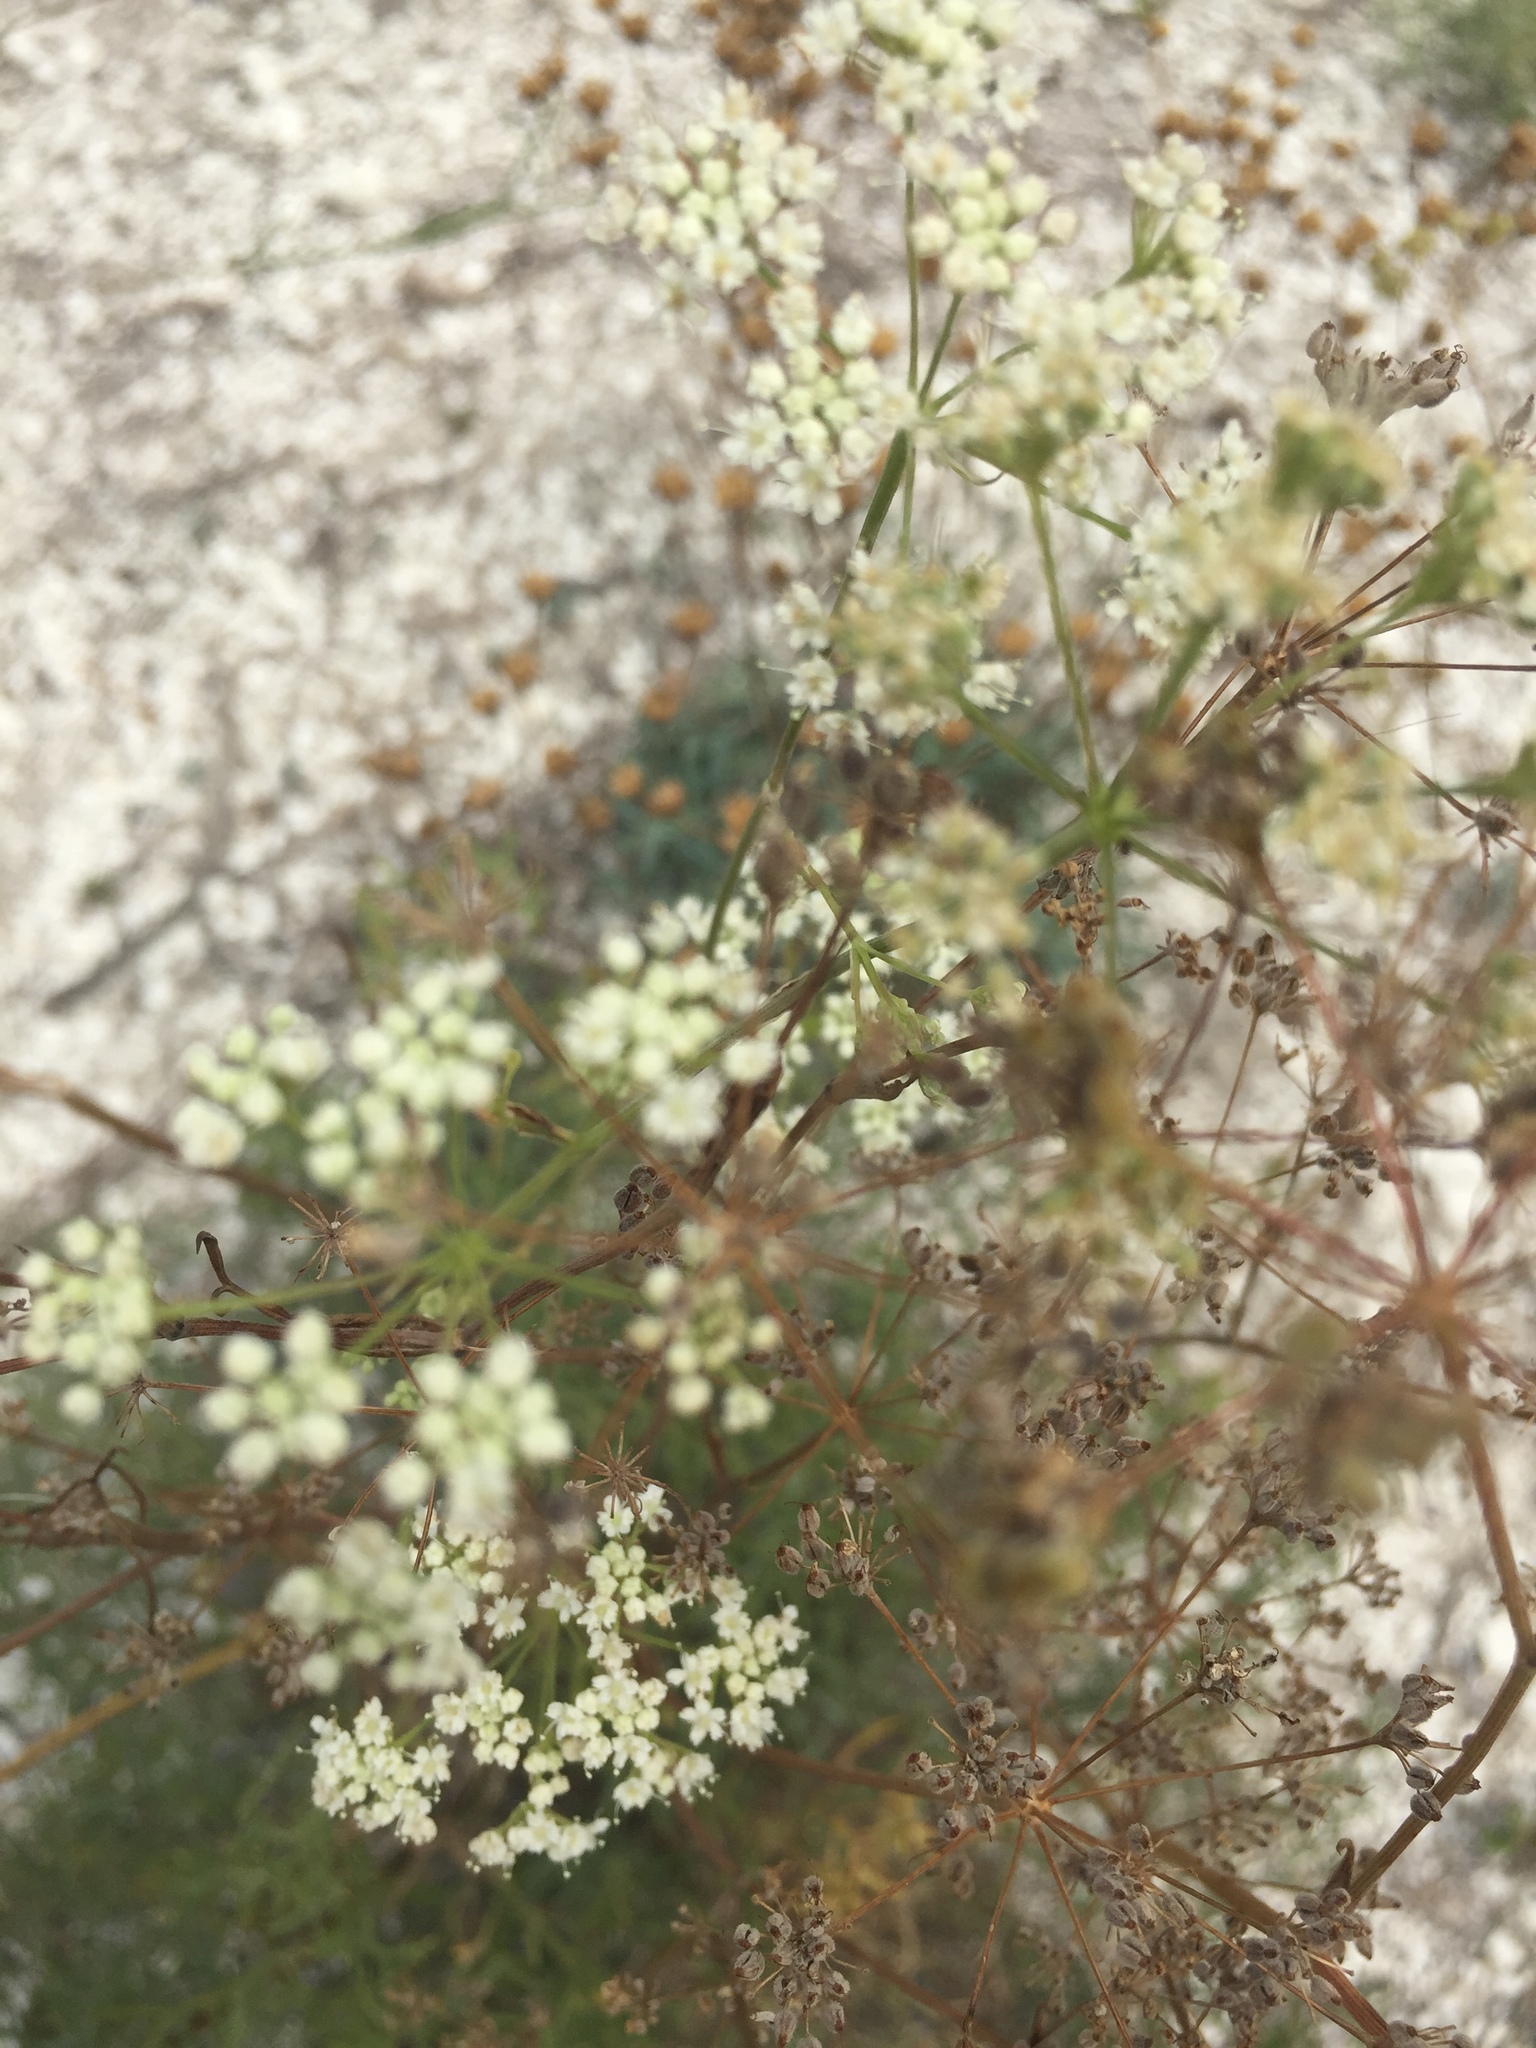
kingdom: Plantae
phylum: Tracheophyta
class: Magnoliopsida
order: Apiales
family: Apiaceae
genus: Pimpinella
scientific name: Pimpinella tragium
